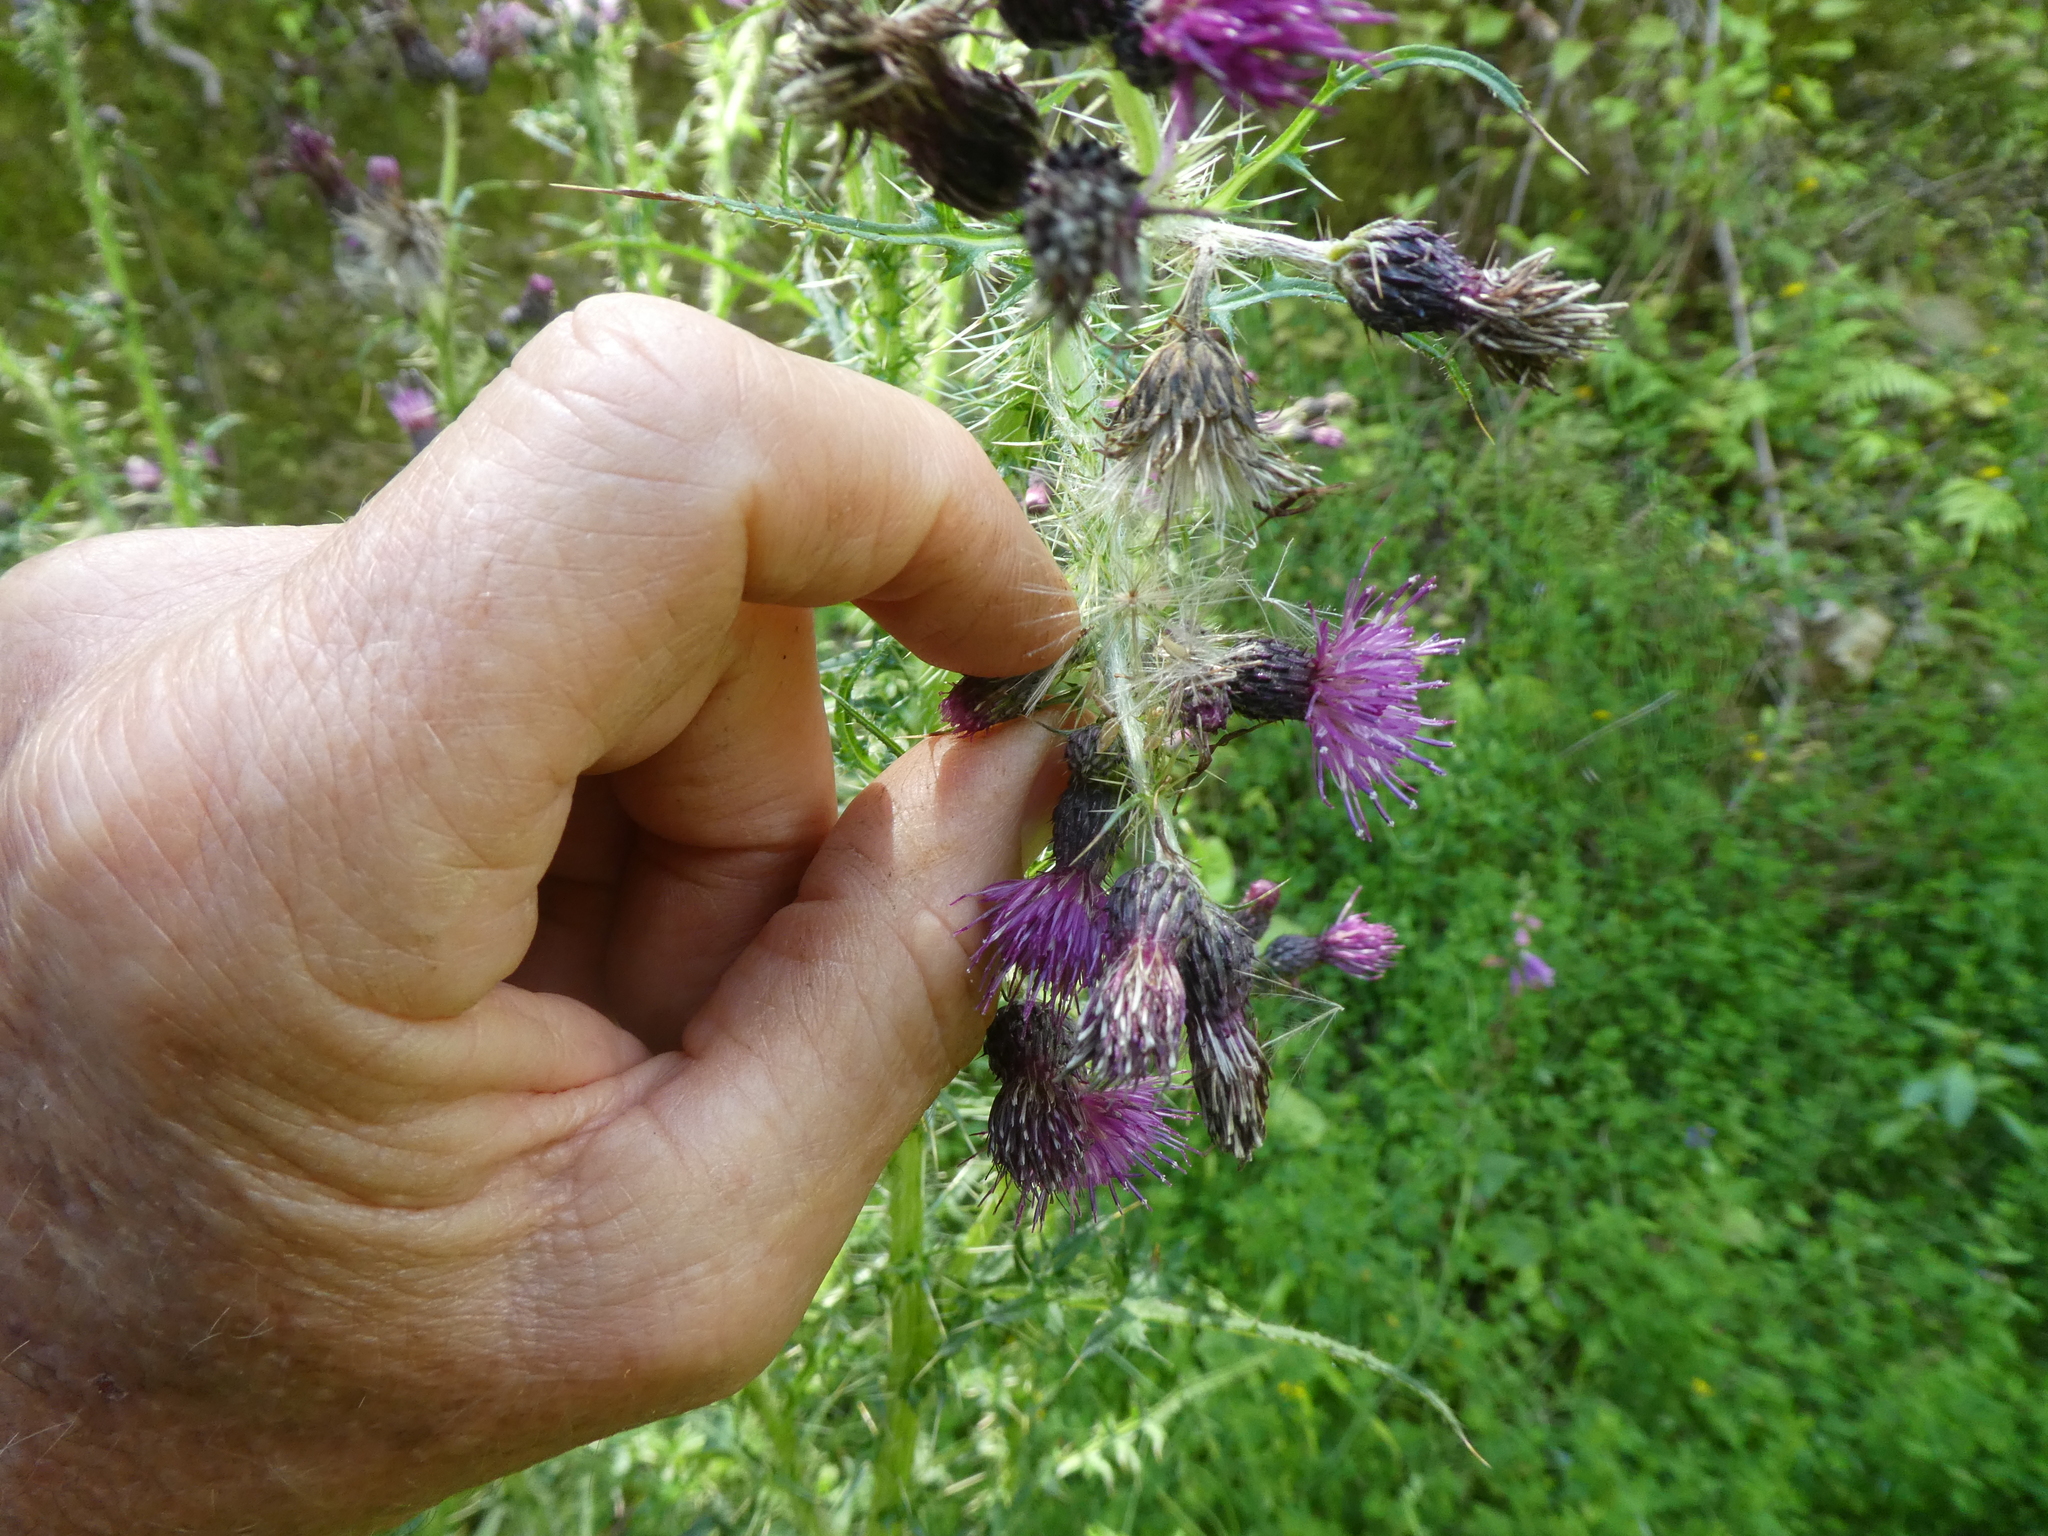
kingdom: Plantae
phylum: Tracheophyta
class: Magnoliopsida
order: Asterales
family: Asteraceae
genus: Cirsium
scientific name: Cirsium palustre
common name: Marsh thistle
